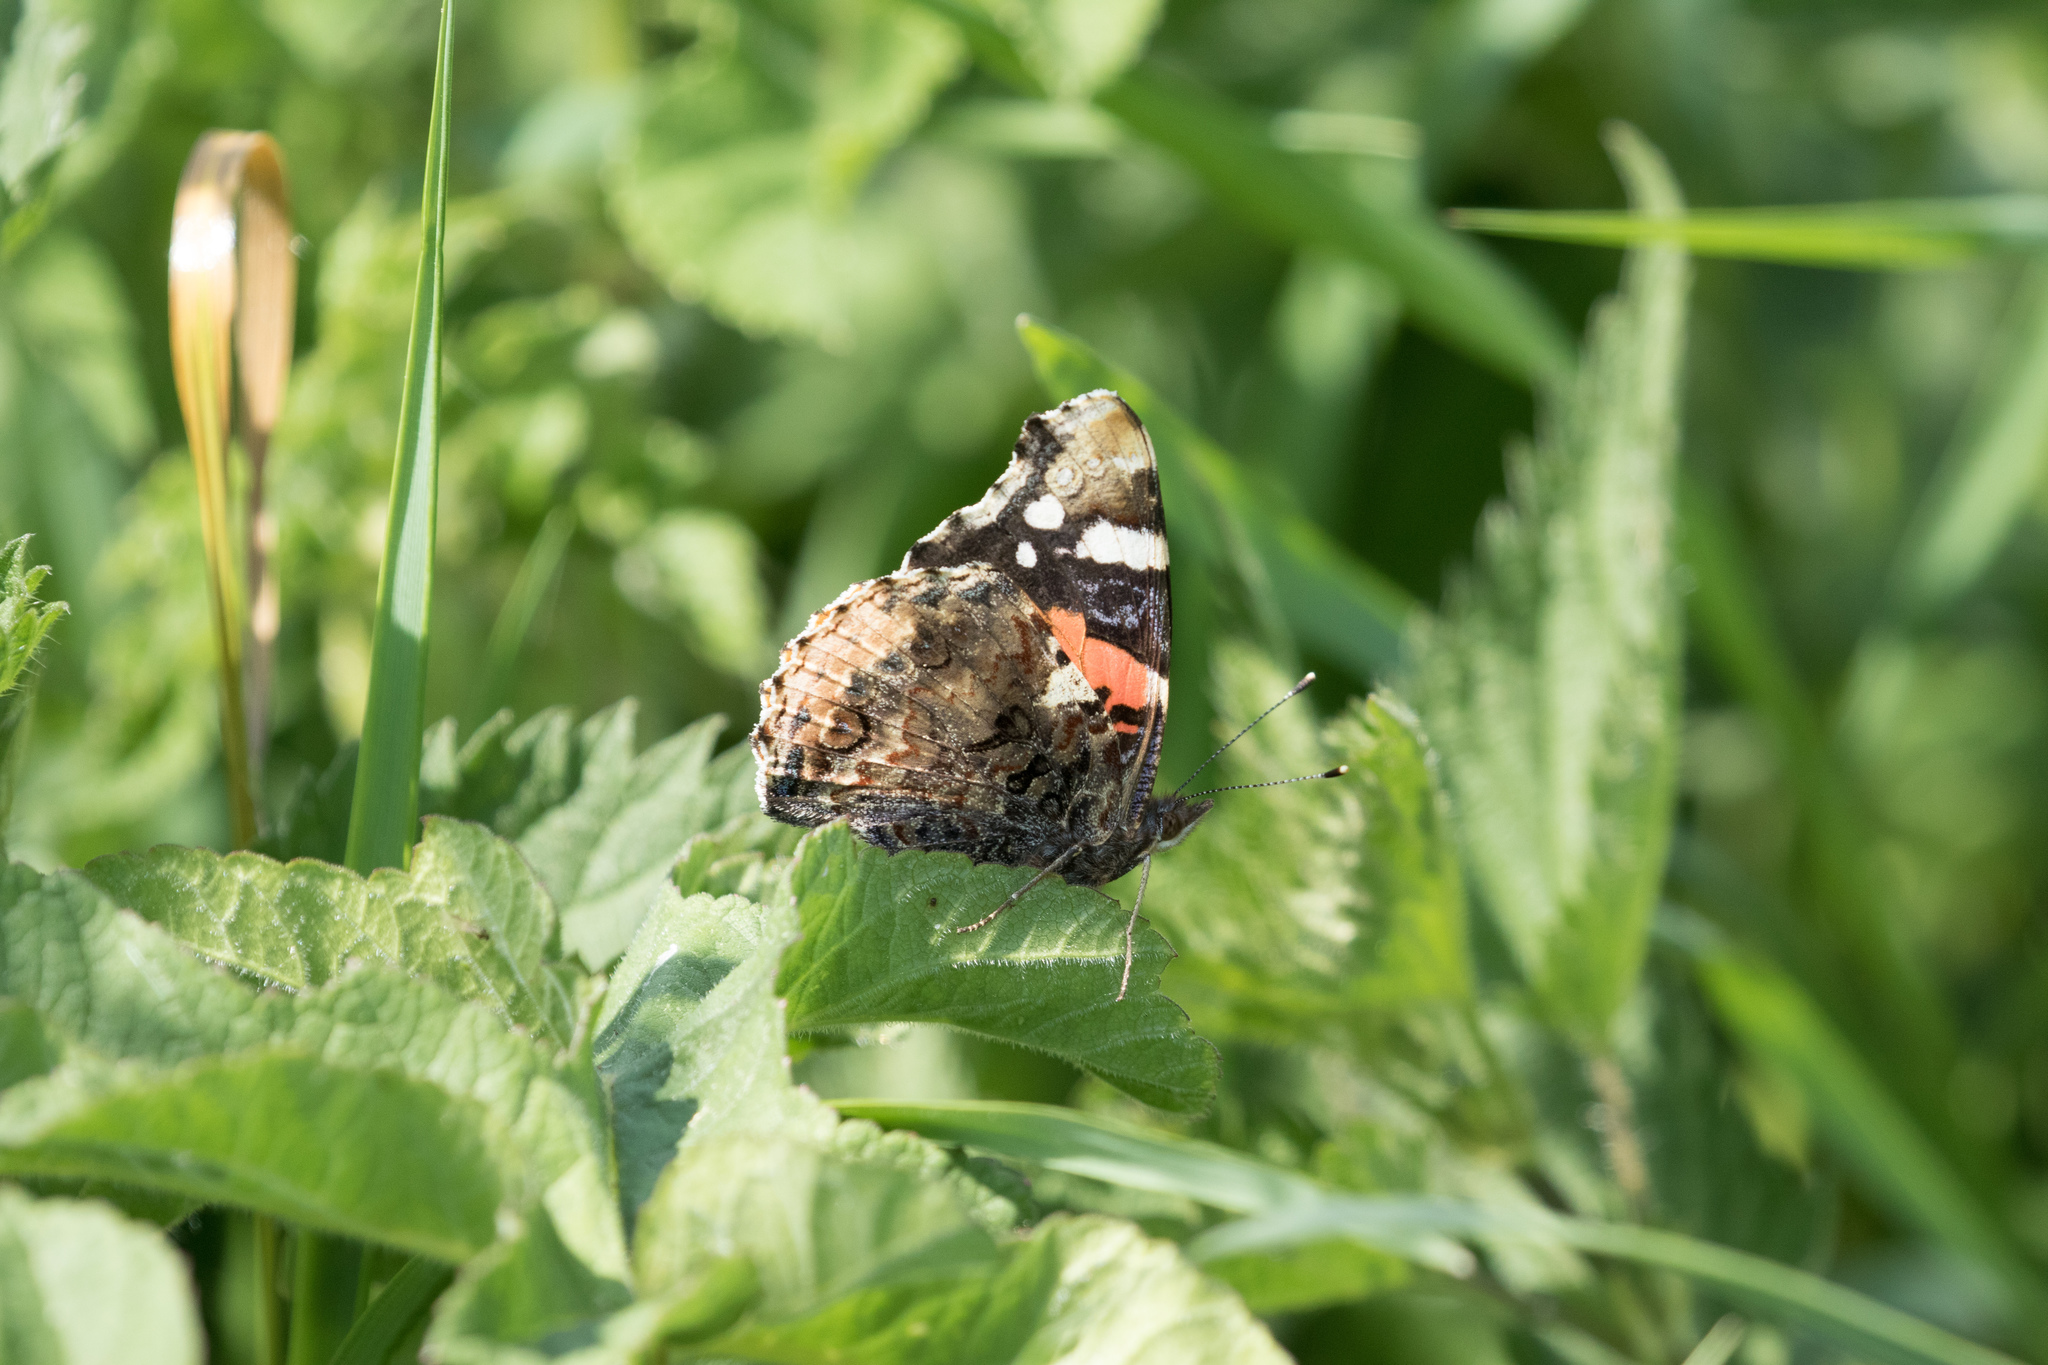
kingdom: Animalia
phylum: Arthropoda
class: Insecta
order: Lepidoptera
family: Nymphalidae
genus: Vanessa
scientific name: Vanessa atalanta
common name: Red admiral
